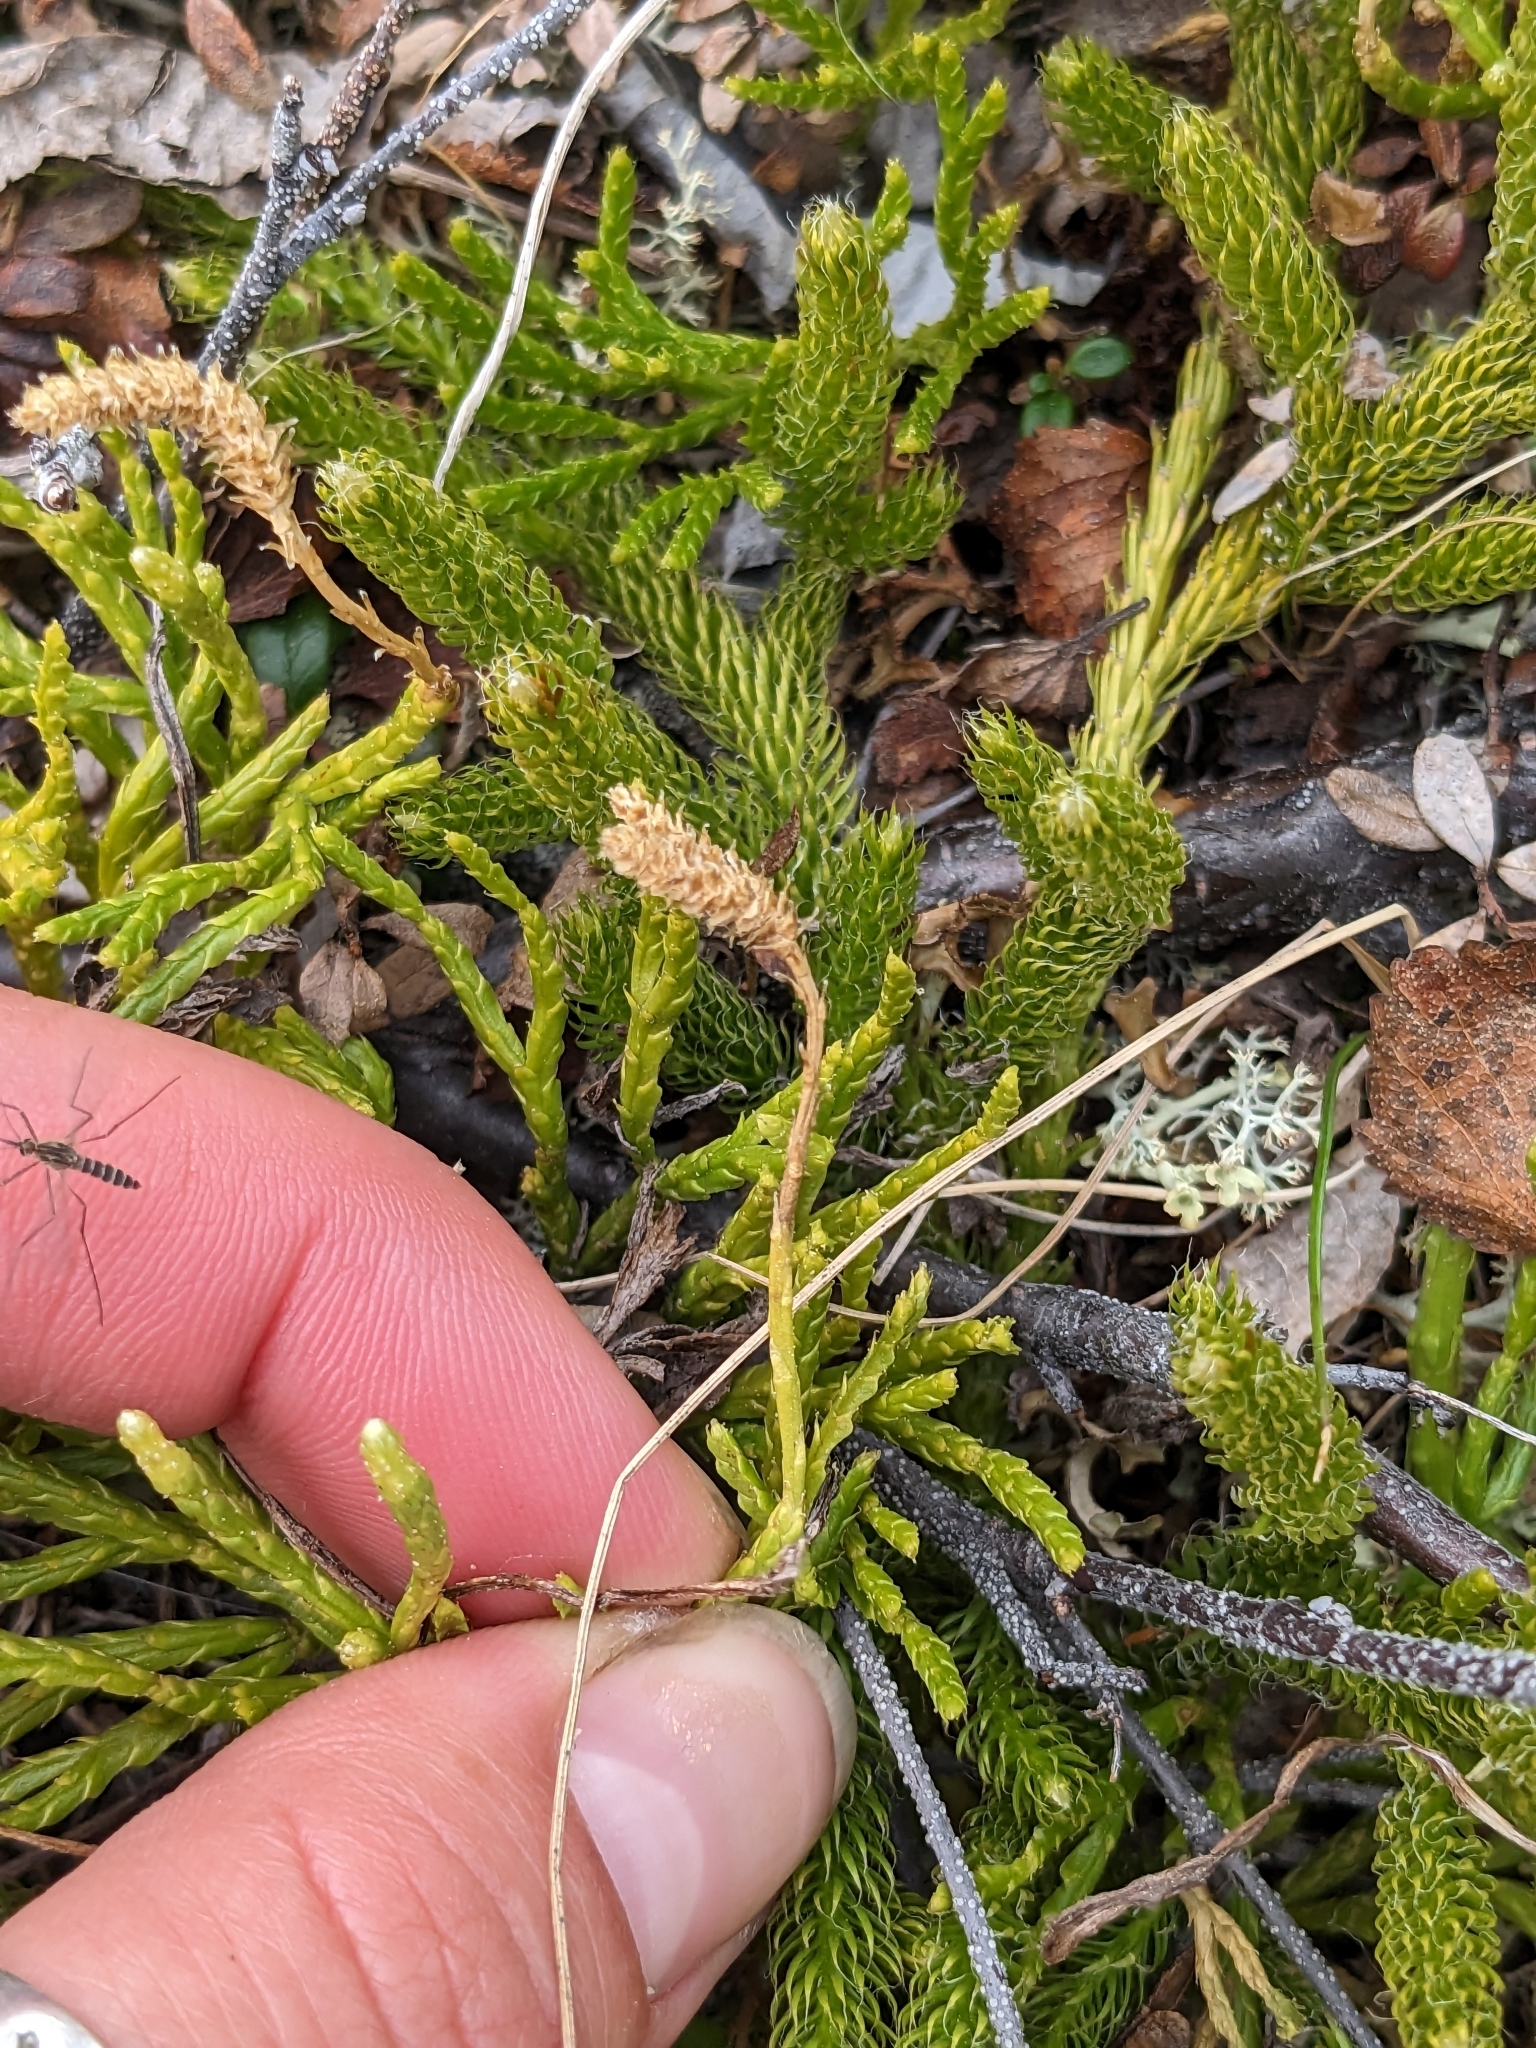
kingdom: Plantae
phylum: Tracheophyta
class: Lycopodiopsida
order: Lycopodiales
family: Lycopodiaceae
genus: Diphasiastrum
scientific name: Diphasiastrum complanatum
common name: Northern running-pine
